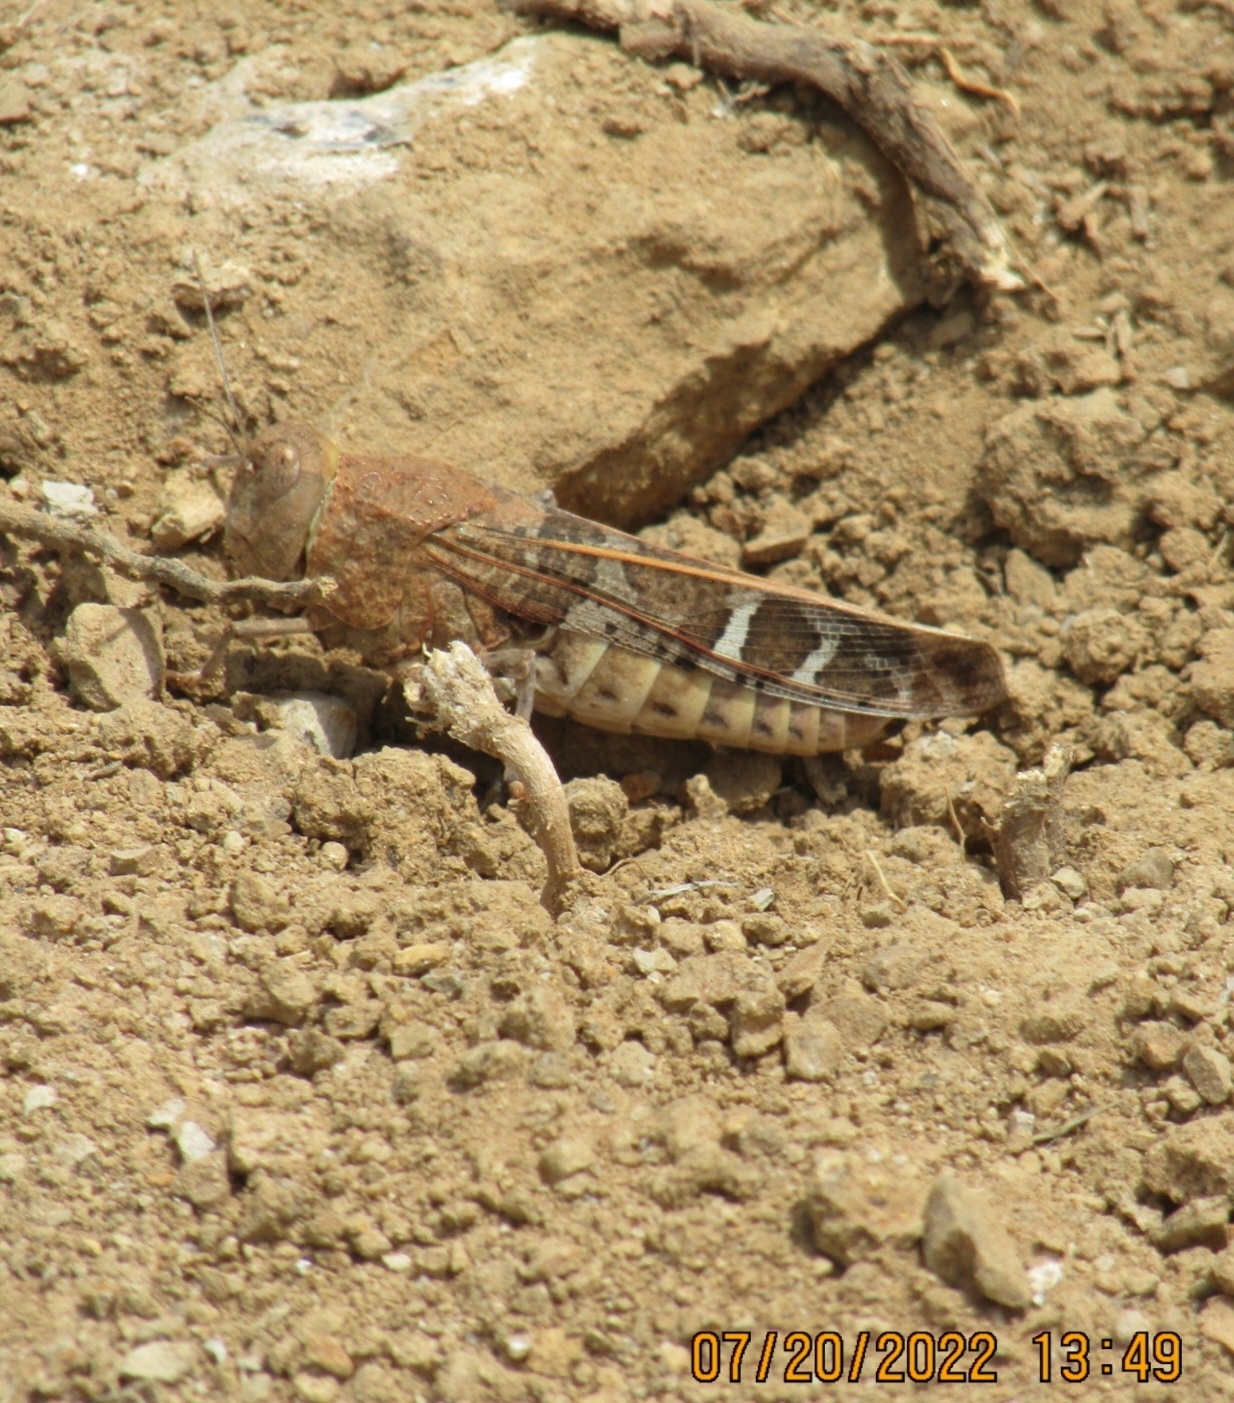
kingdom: Animalia
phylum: Arthropoda
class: Insecta
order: Orthoptera
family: Acrididae
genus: Leprus
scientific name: Leprus intermedius
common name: Saussure's blue-winged grasshopper
